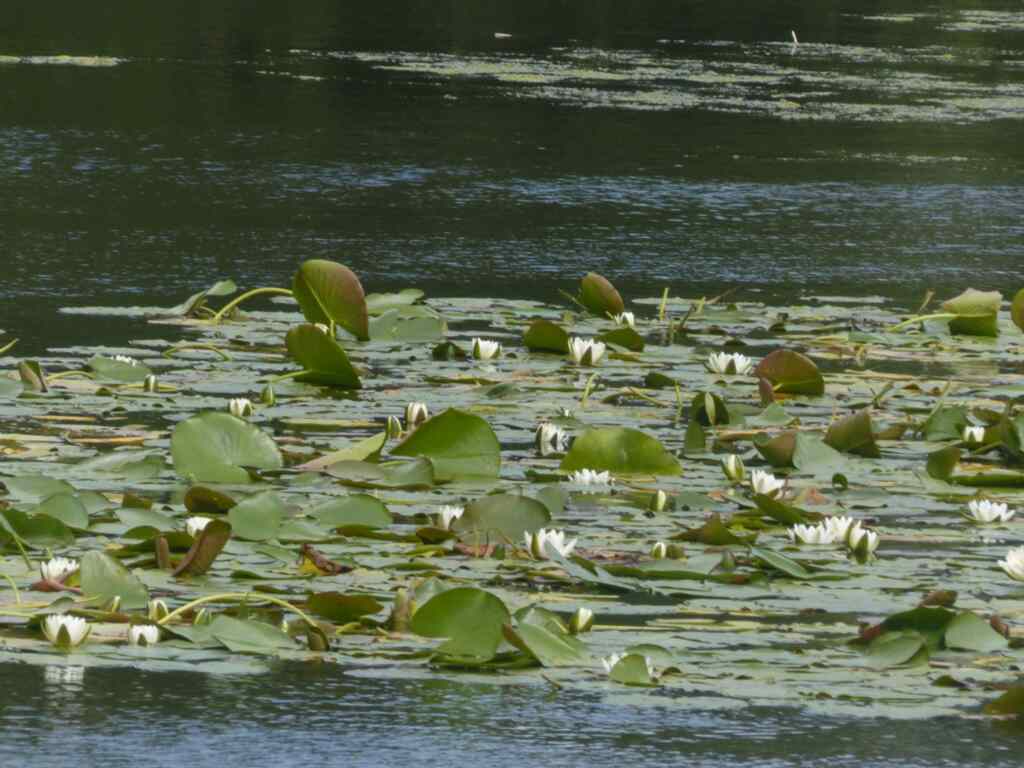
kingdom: Plantae
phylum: Tracheophyta
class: Magnoliopsida
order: Nymphaeales
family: Nymphaeaceae
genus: Nymphaea
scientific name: Nymphaea alba
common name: White water-lily
